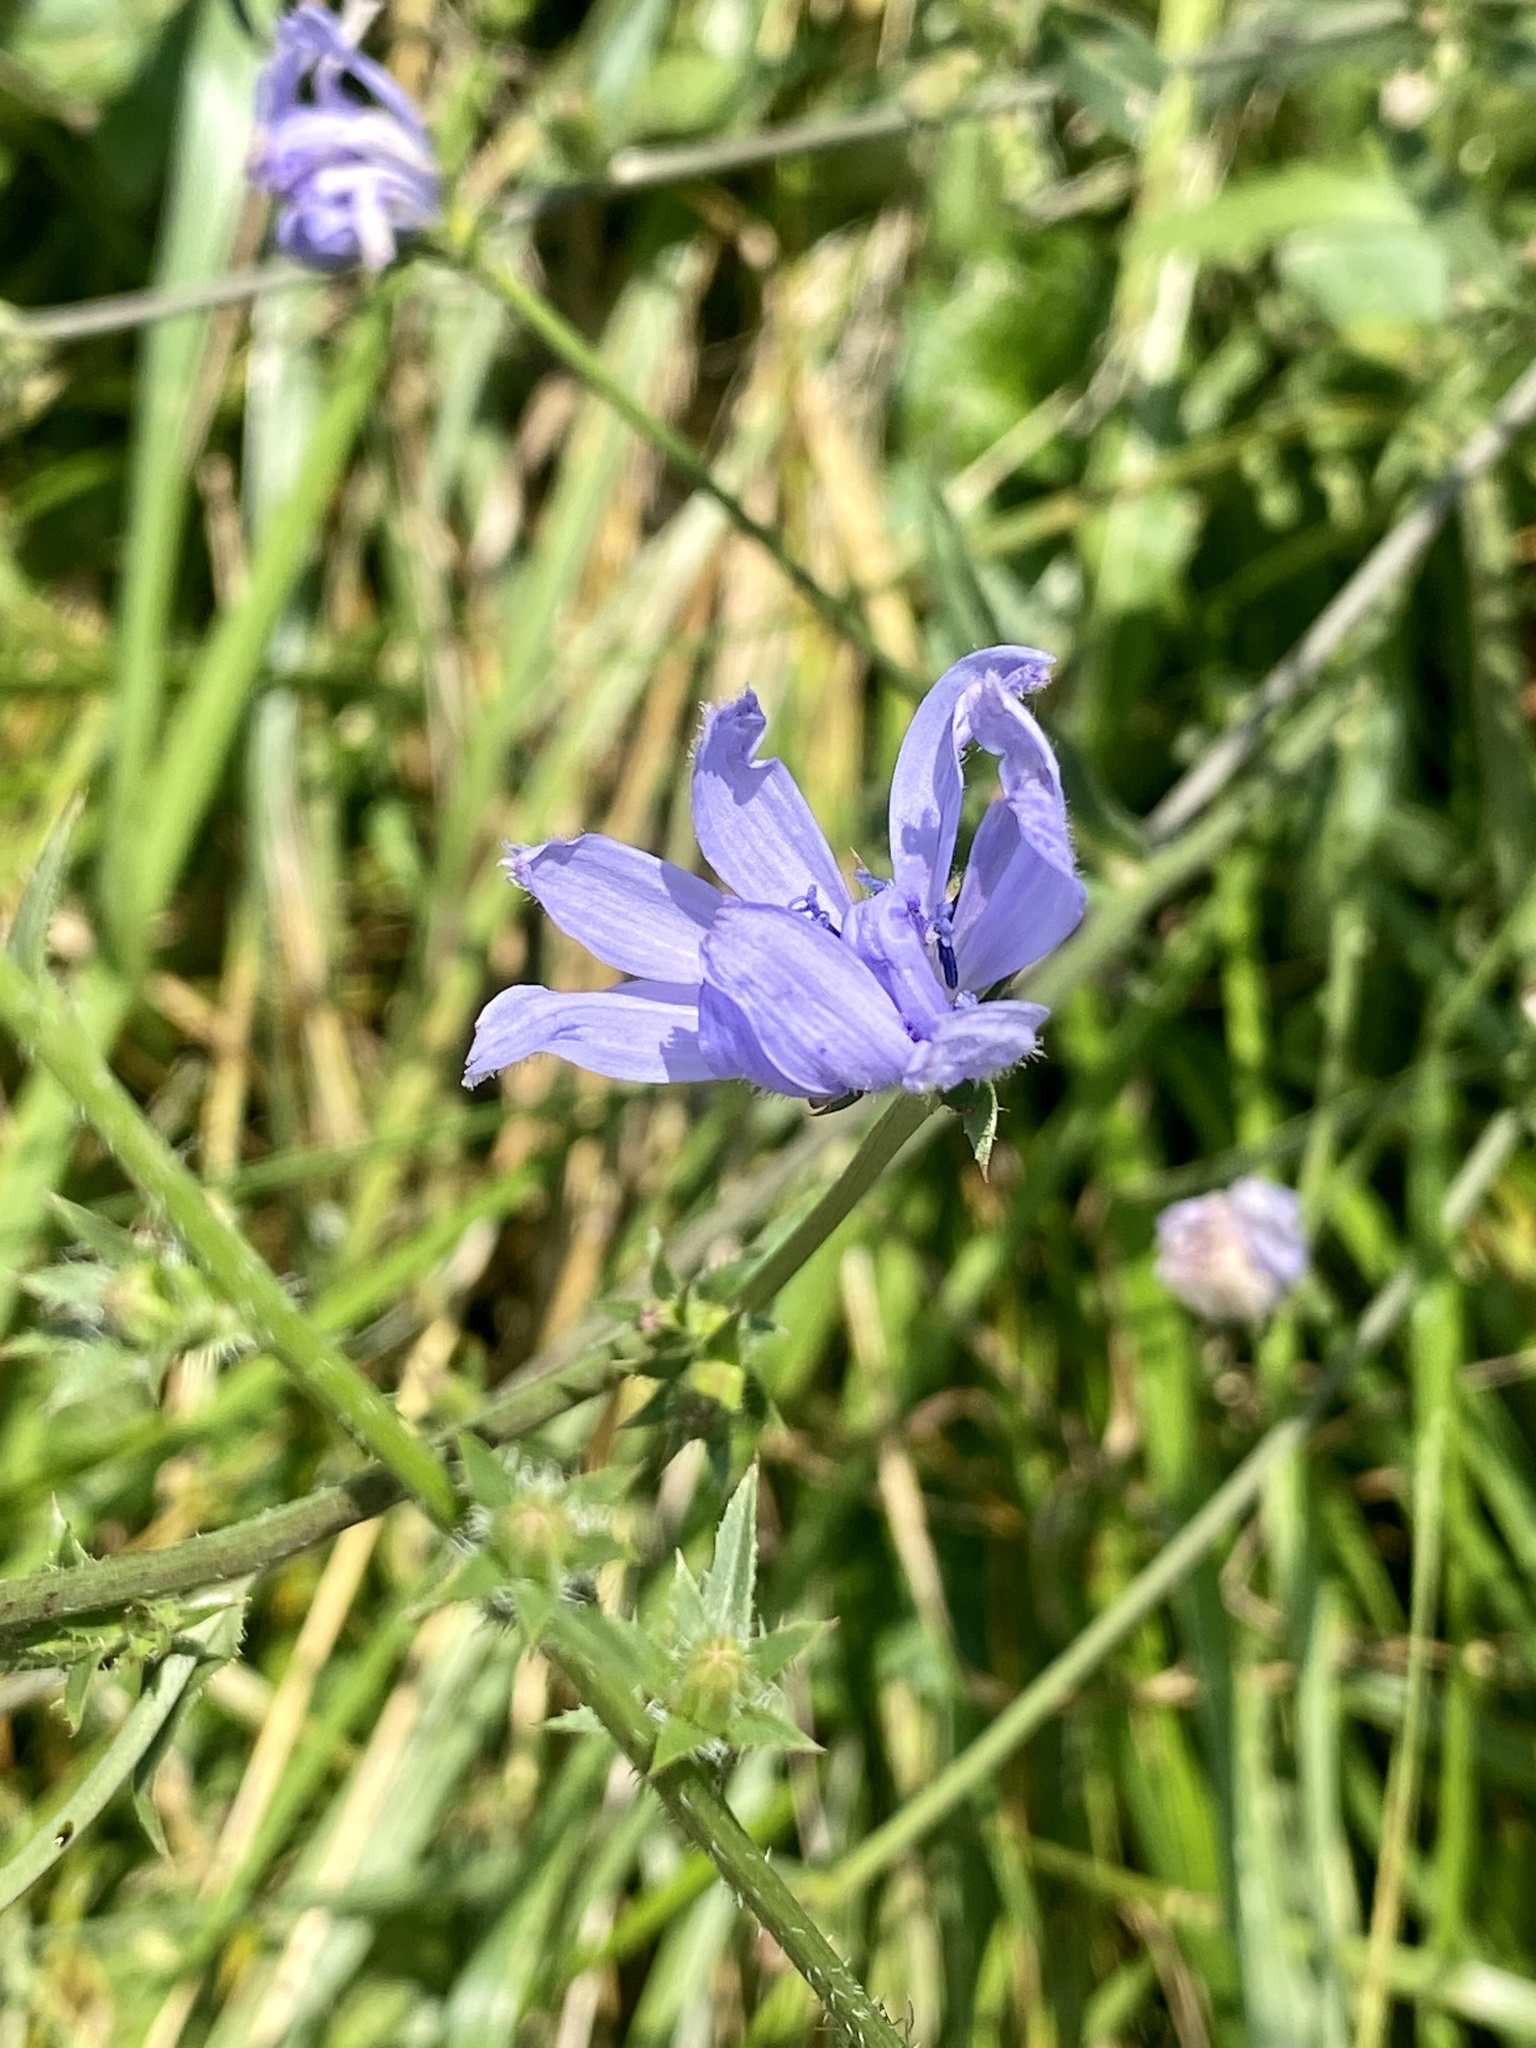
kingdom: Plantae
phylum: Tracheophyta
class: Magnoliopsida
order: Asterales
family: Asteraceae
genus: Cichorium
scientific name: Cichorium intybus
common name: Chicory
